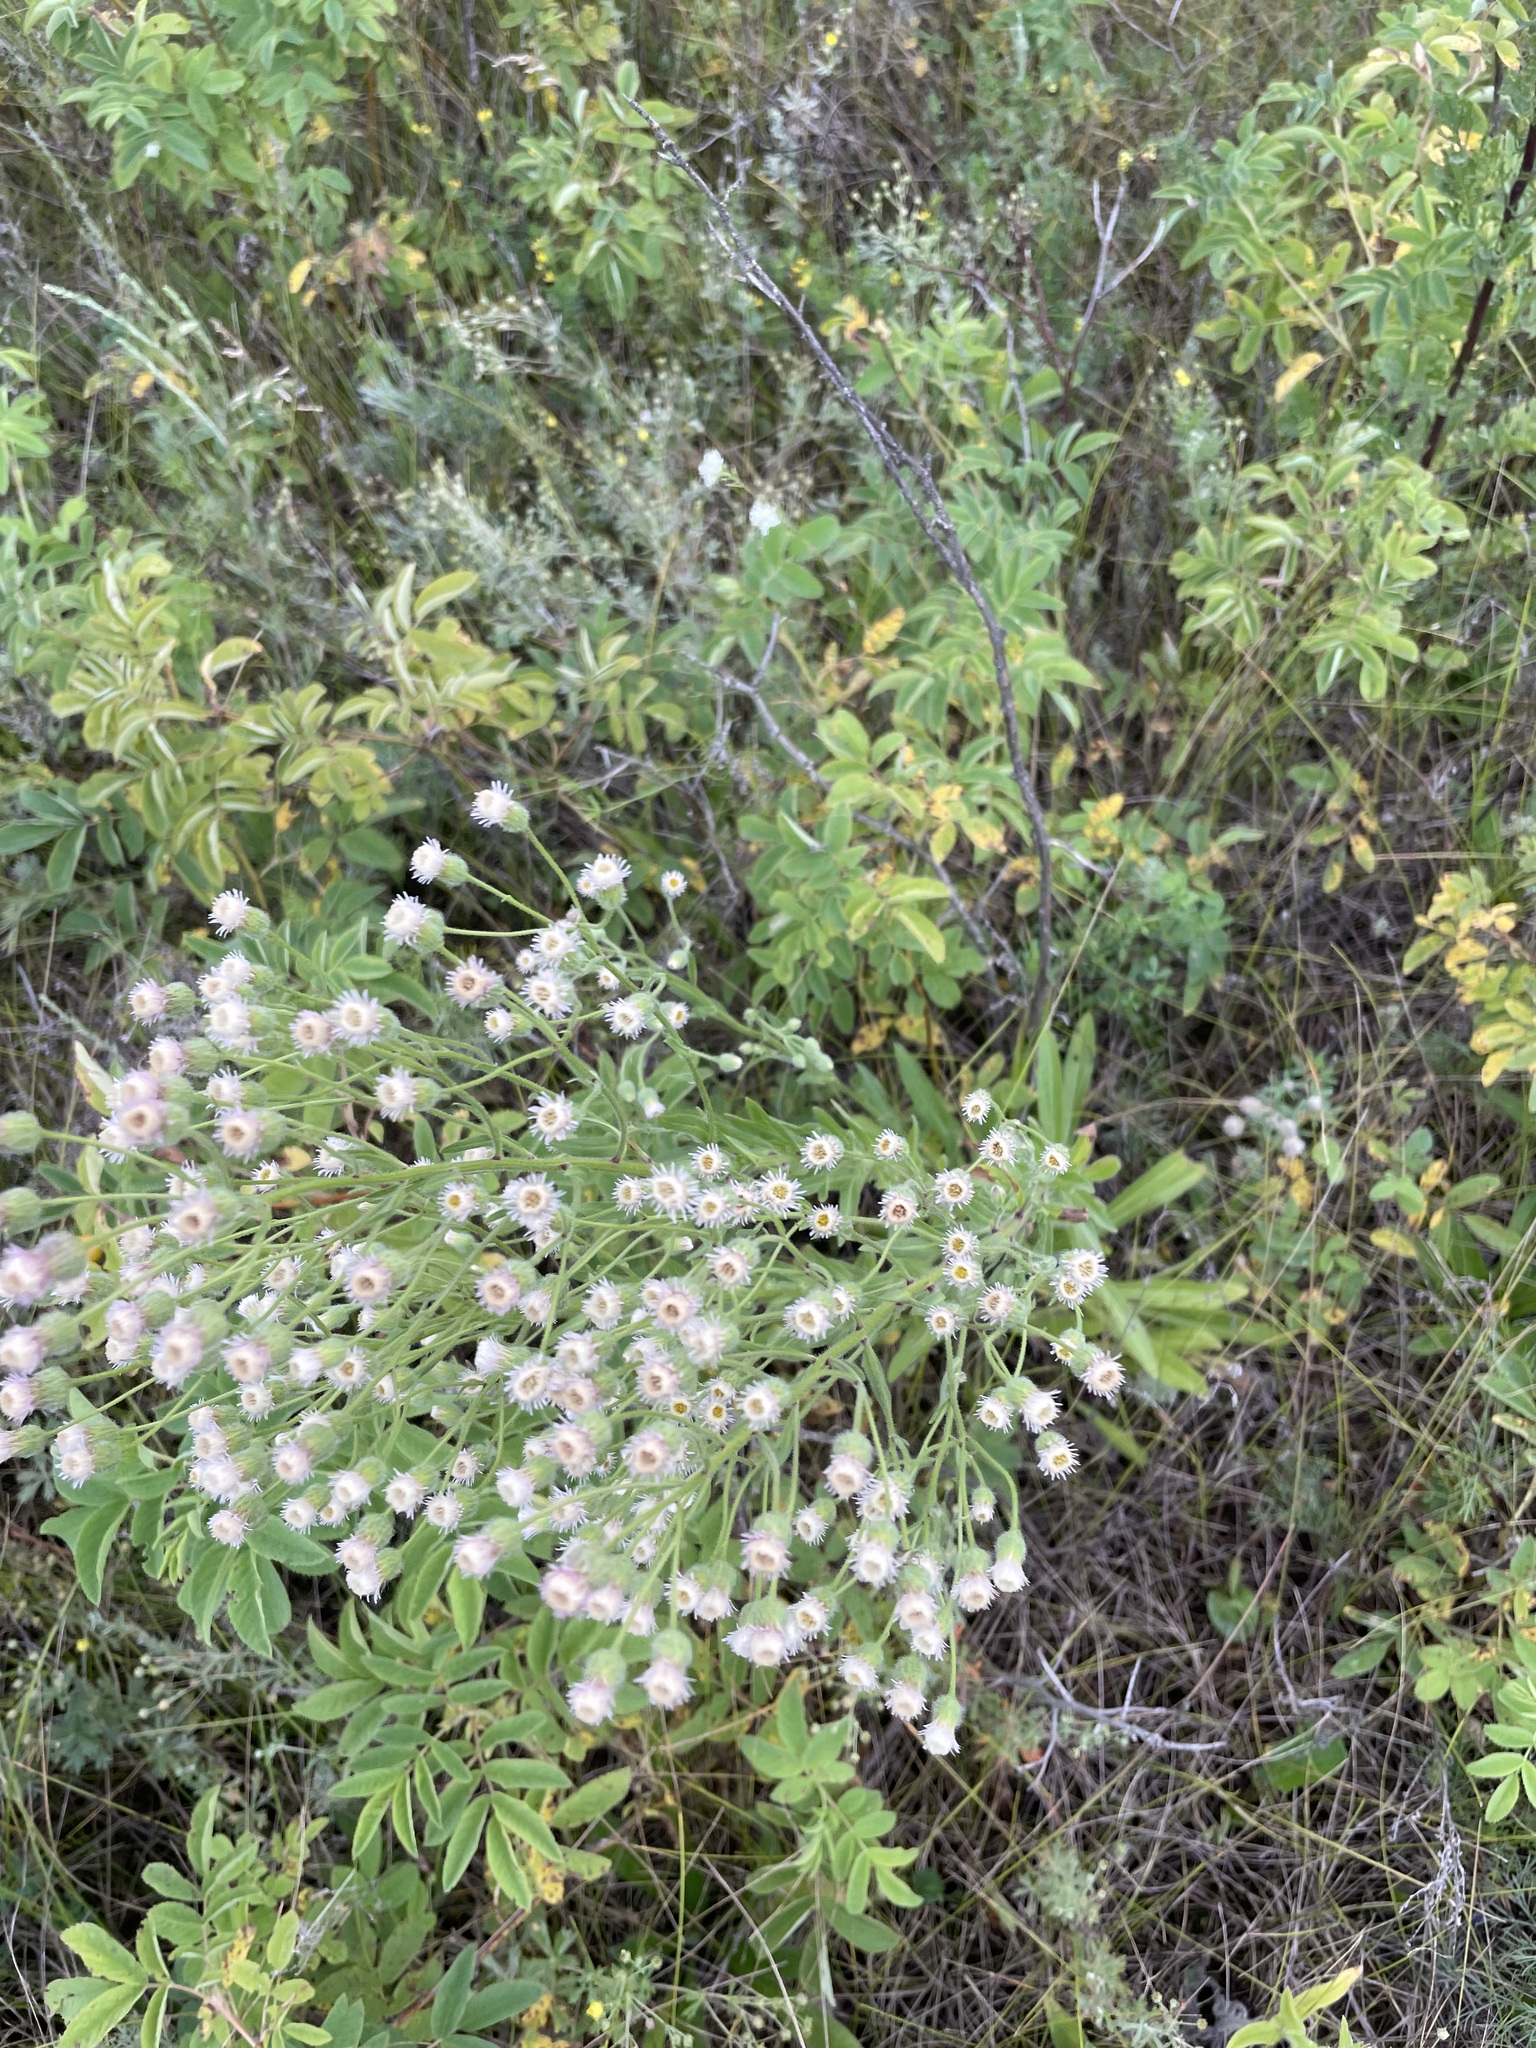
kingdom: Plantae
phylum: Tracheophyta
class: Magnoliopsida
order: Asterales
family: Asteraceae
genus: Erigeron
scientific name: Erigeron acris
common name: Blue fleabane
